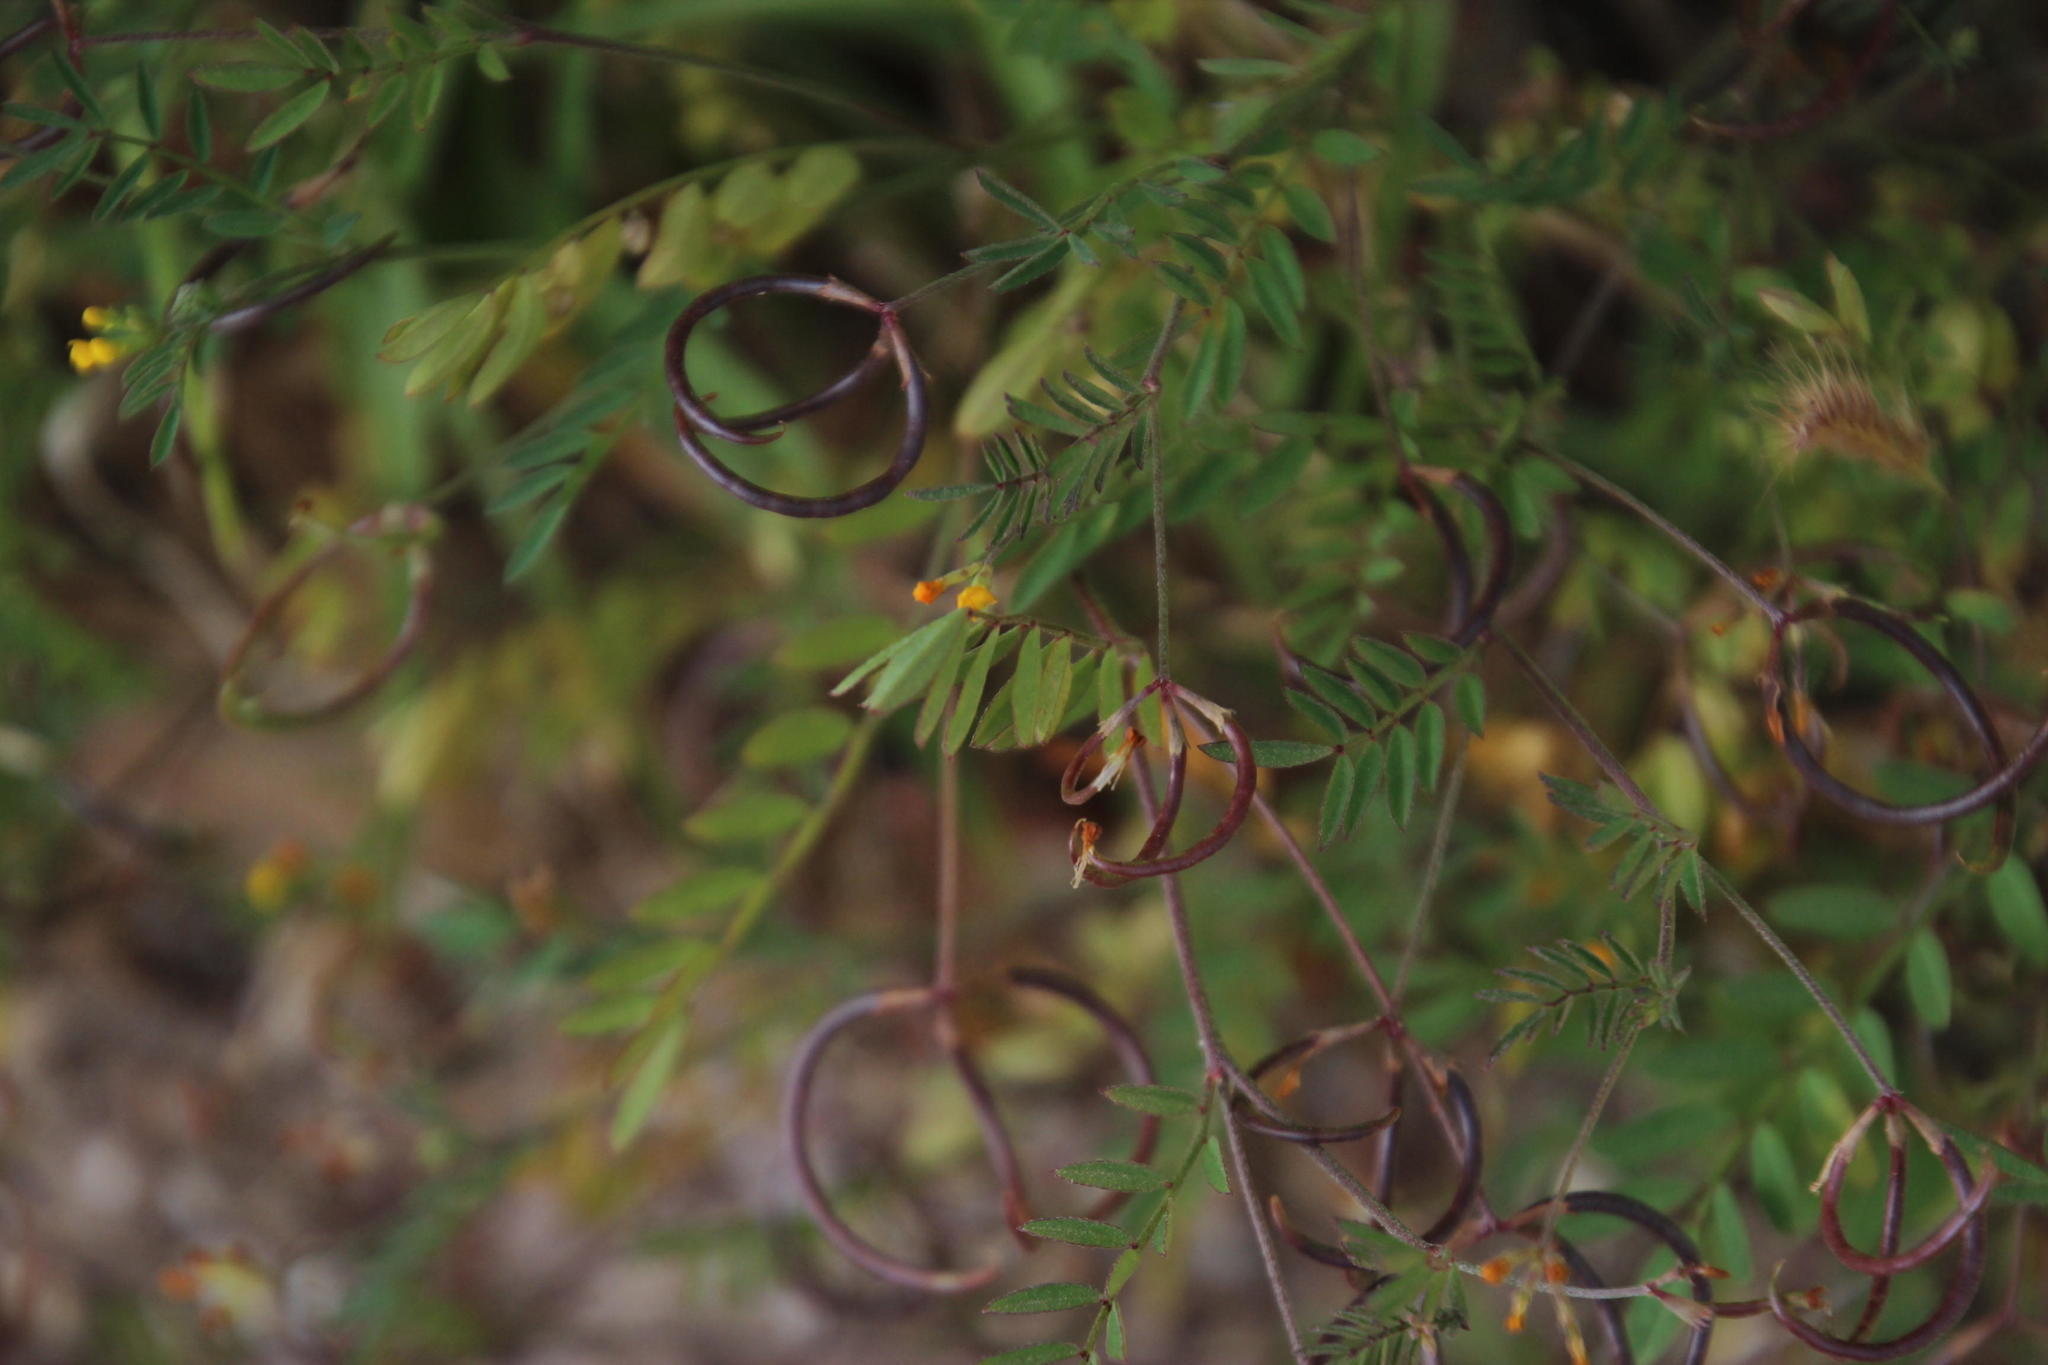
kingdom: Plantae
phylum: Tracheophyta
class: Magnoliopsida
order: Fabales
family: Fabaceae
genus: Ornithopus
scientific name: Ornithopus pinnatus
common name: Orange bird's-foot
